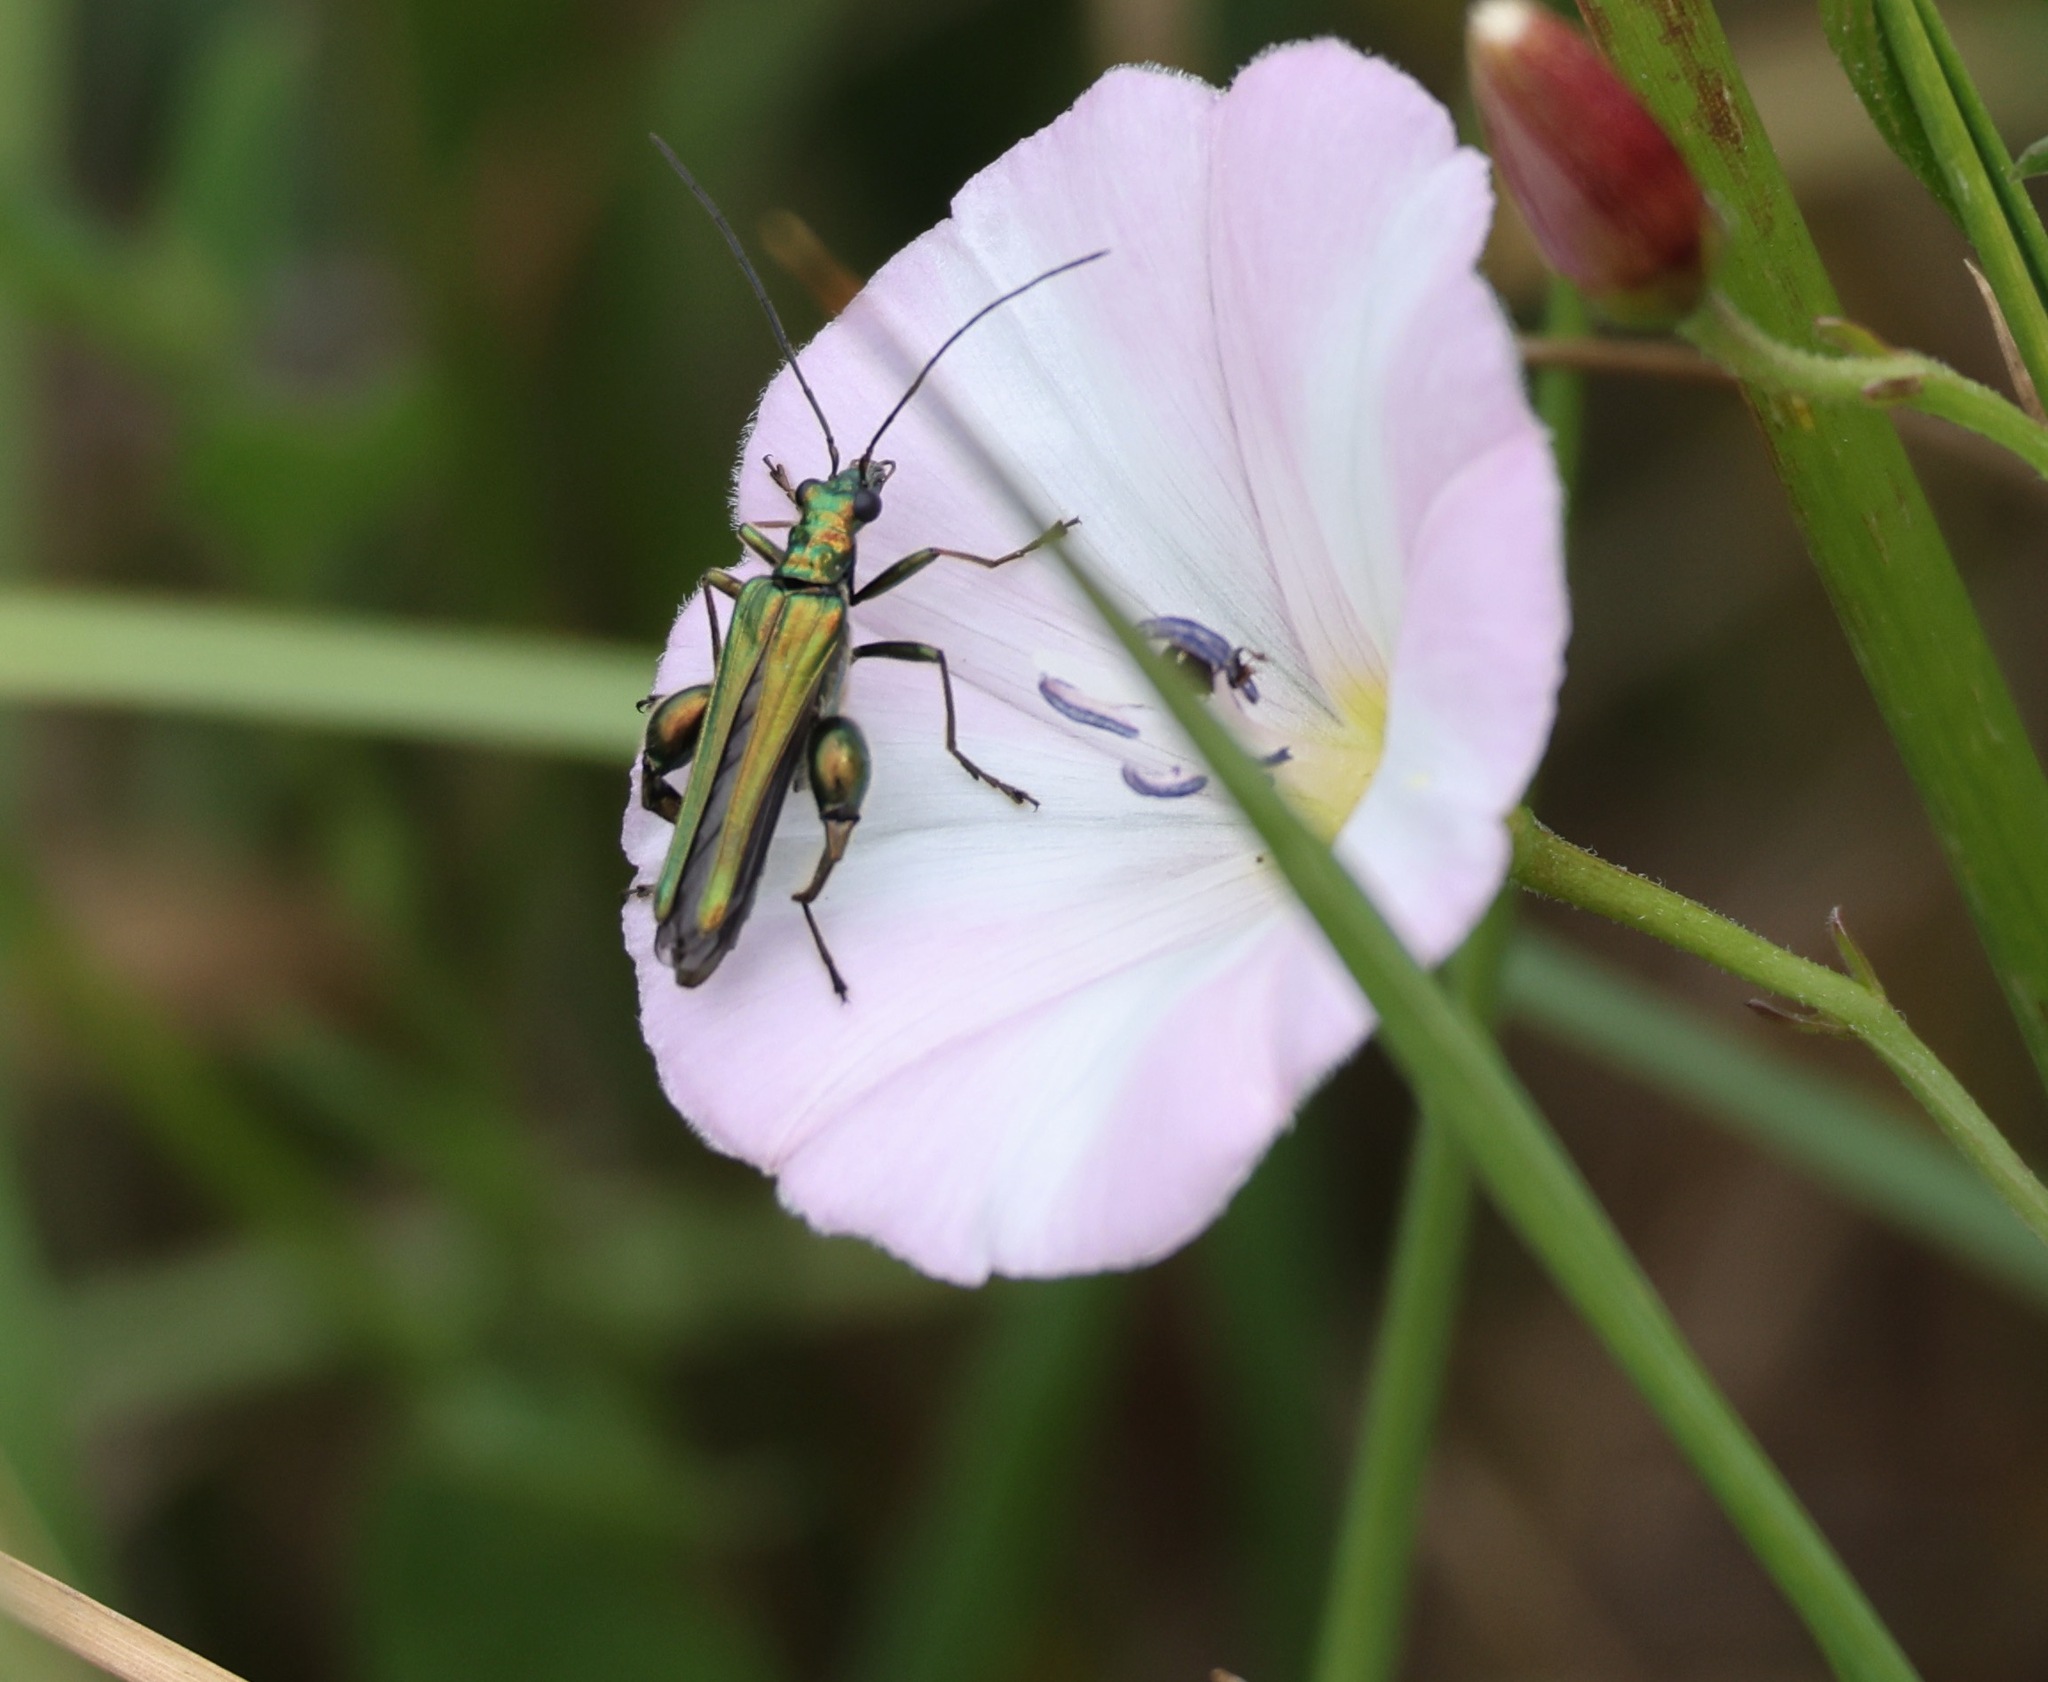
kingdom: Animalia
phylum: Arthropoda
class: Insecta
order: Coleoptera
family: Oedemeridae
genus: Oedemera
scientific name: Oedemera nobilis
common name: Swollen-thighed beetle
